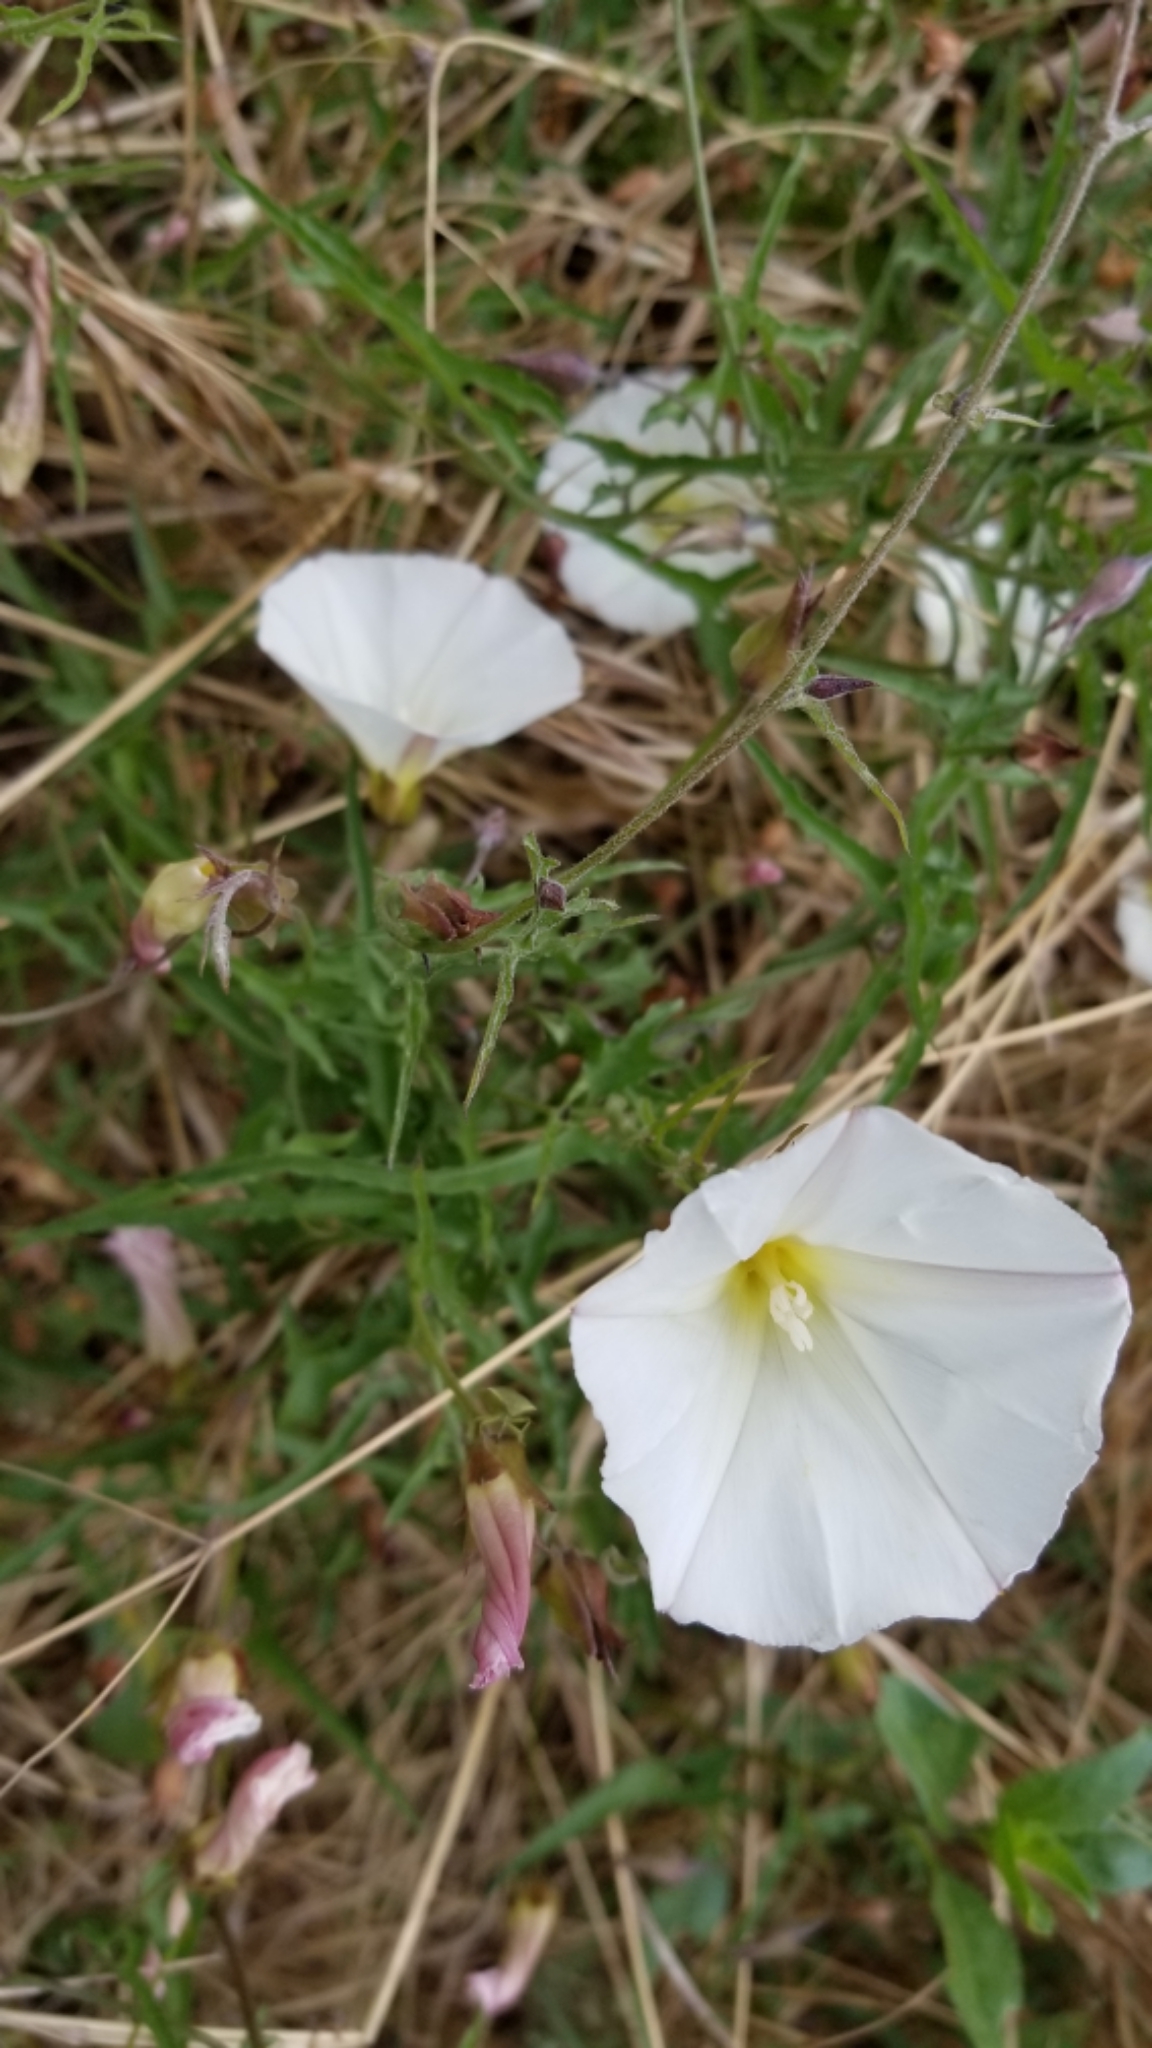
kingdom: Plantae
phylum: Tracheophyta
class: Magnoliopsida
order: Solanales
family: Convolvulaceae
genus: Calystegia
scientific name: Calystegia macrostegia
